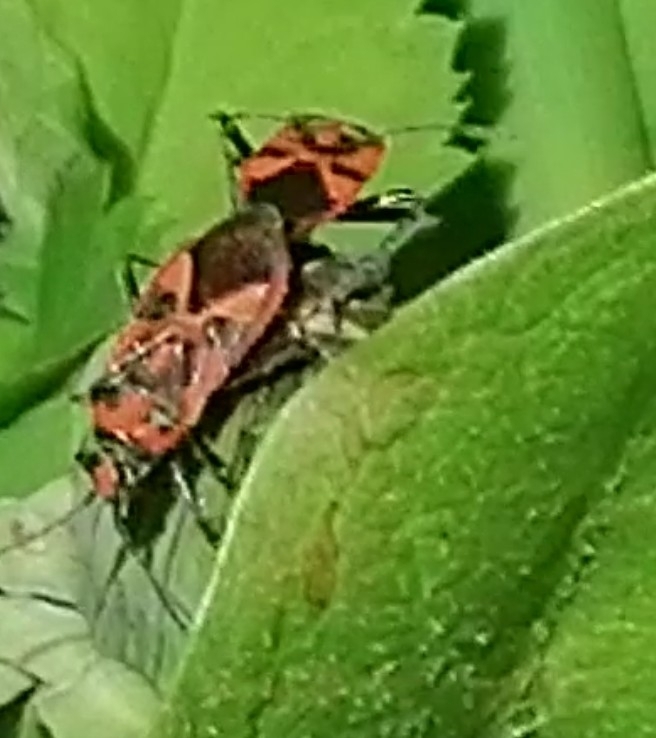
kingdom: Animalia
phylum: Arthropoda
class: Insecta
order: Hemiptera
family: Rhopalidae
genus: Corizus
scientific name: Corizus hyoscyami
